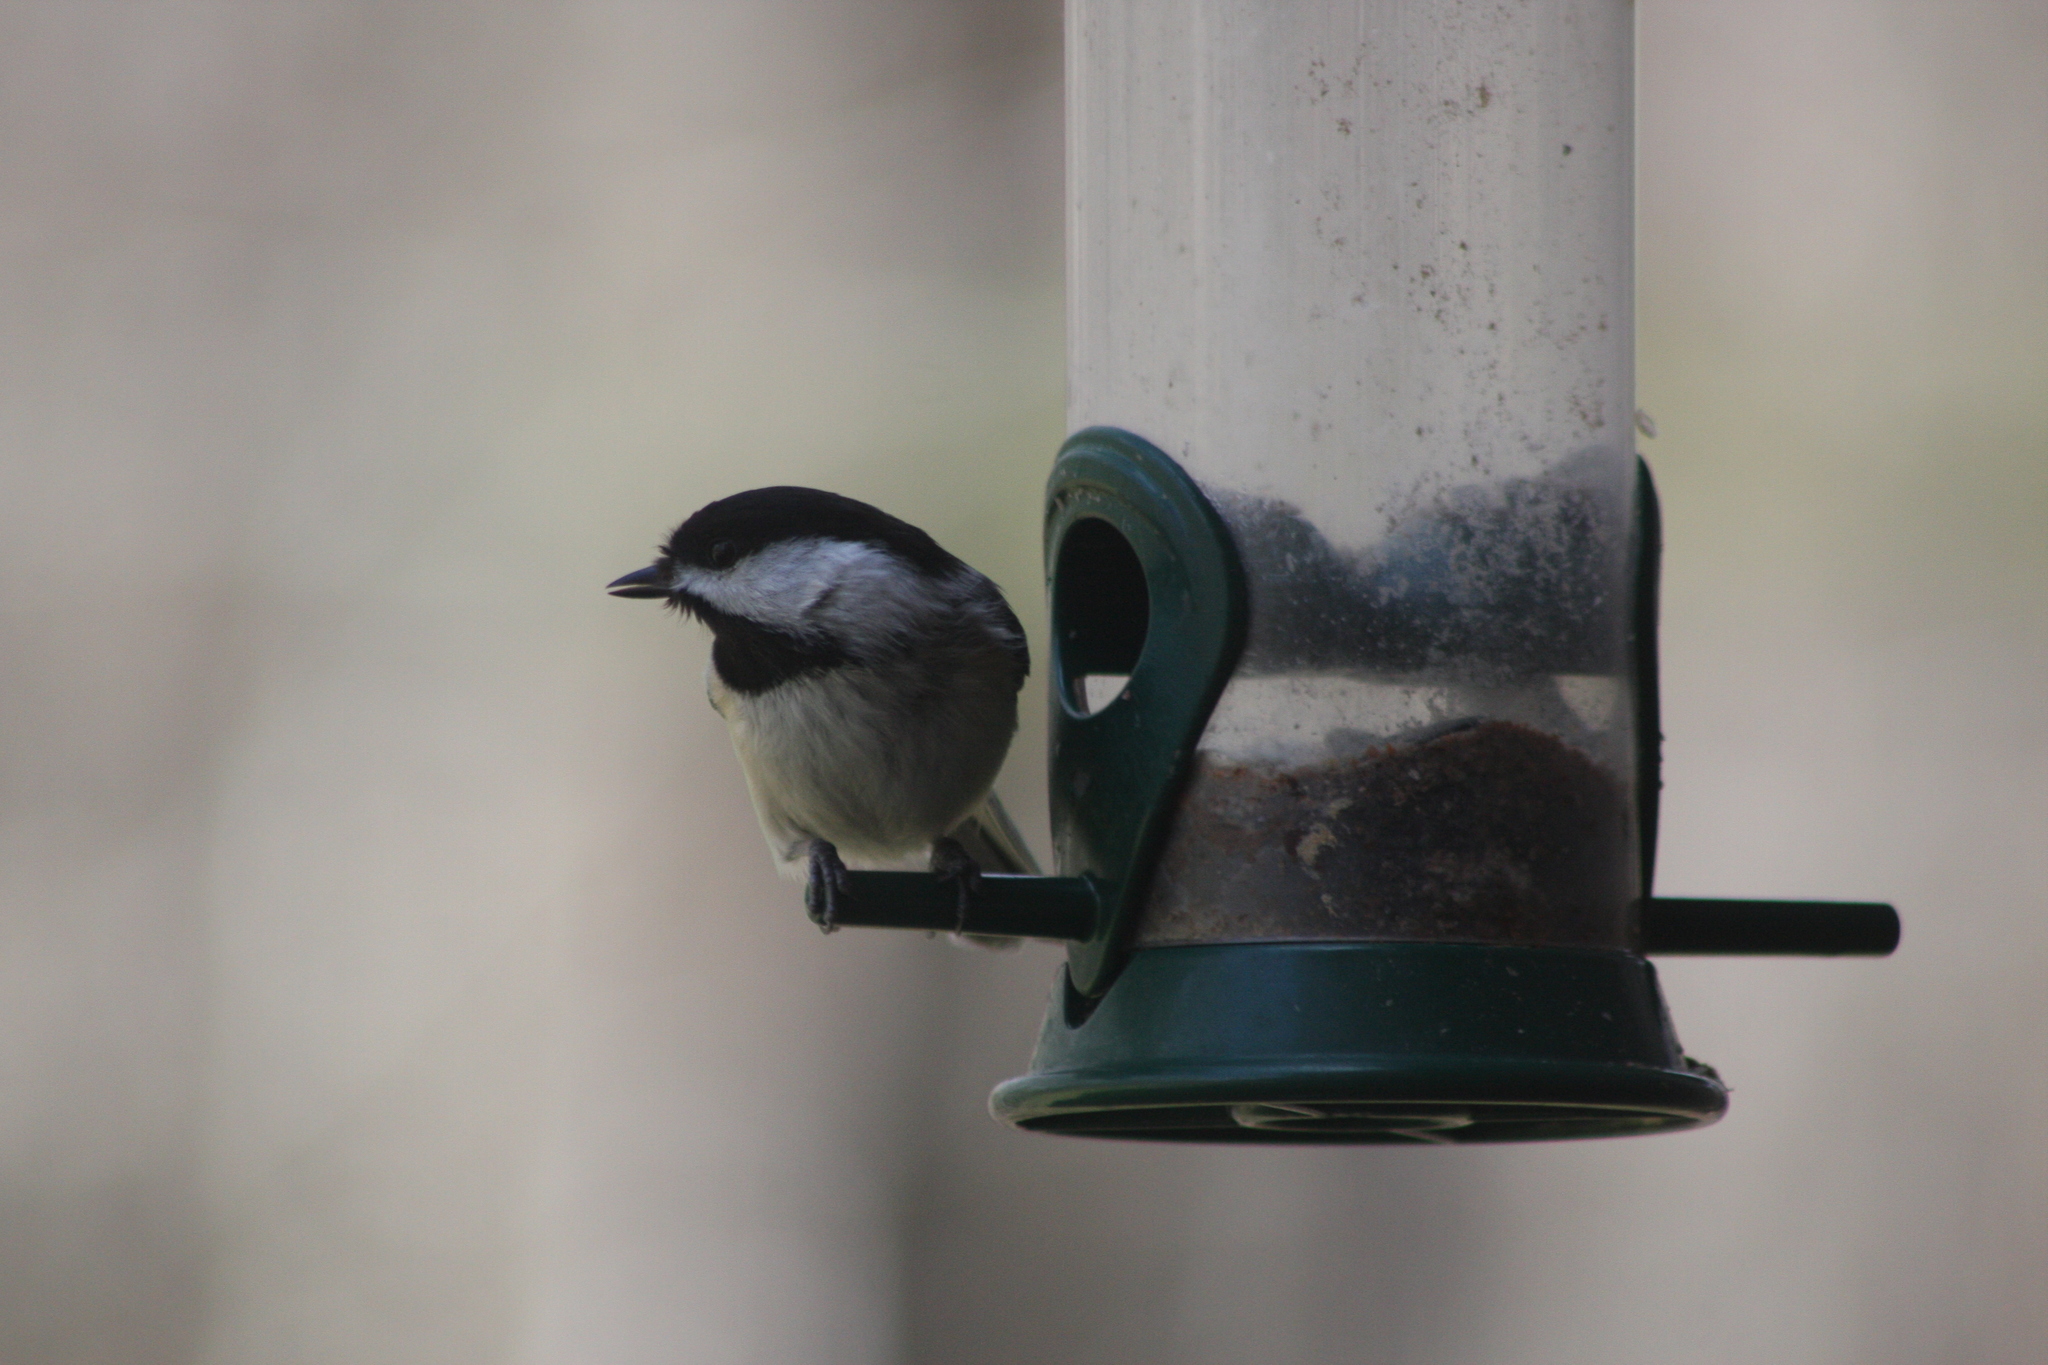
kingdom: Animalia
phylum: Chordata
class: Aves
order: Passeriformes
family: Paridae
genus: Poecile
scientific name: Poecile atricapillus
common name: Black-capped chickadee
